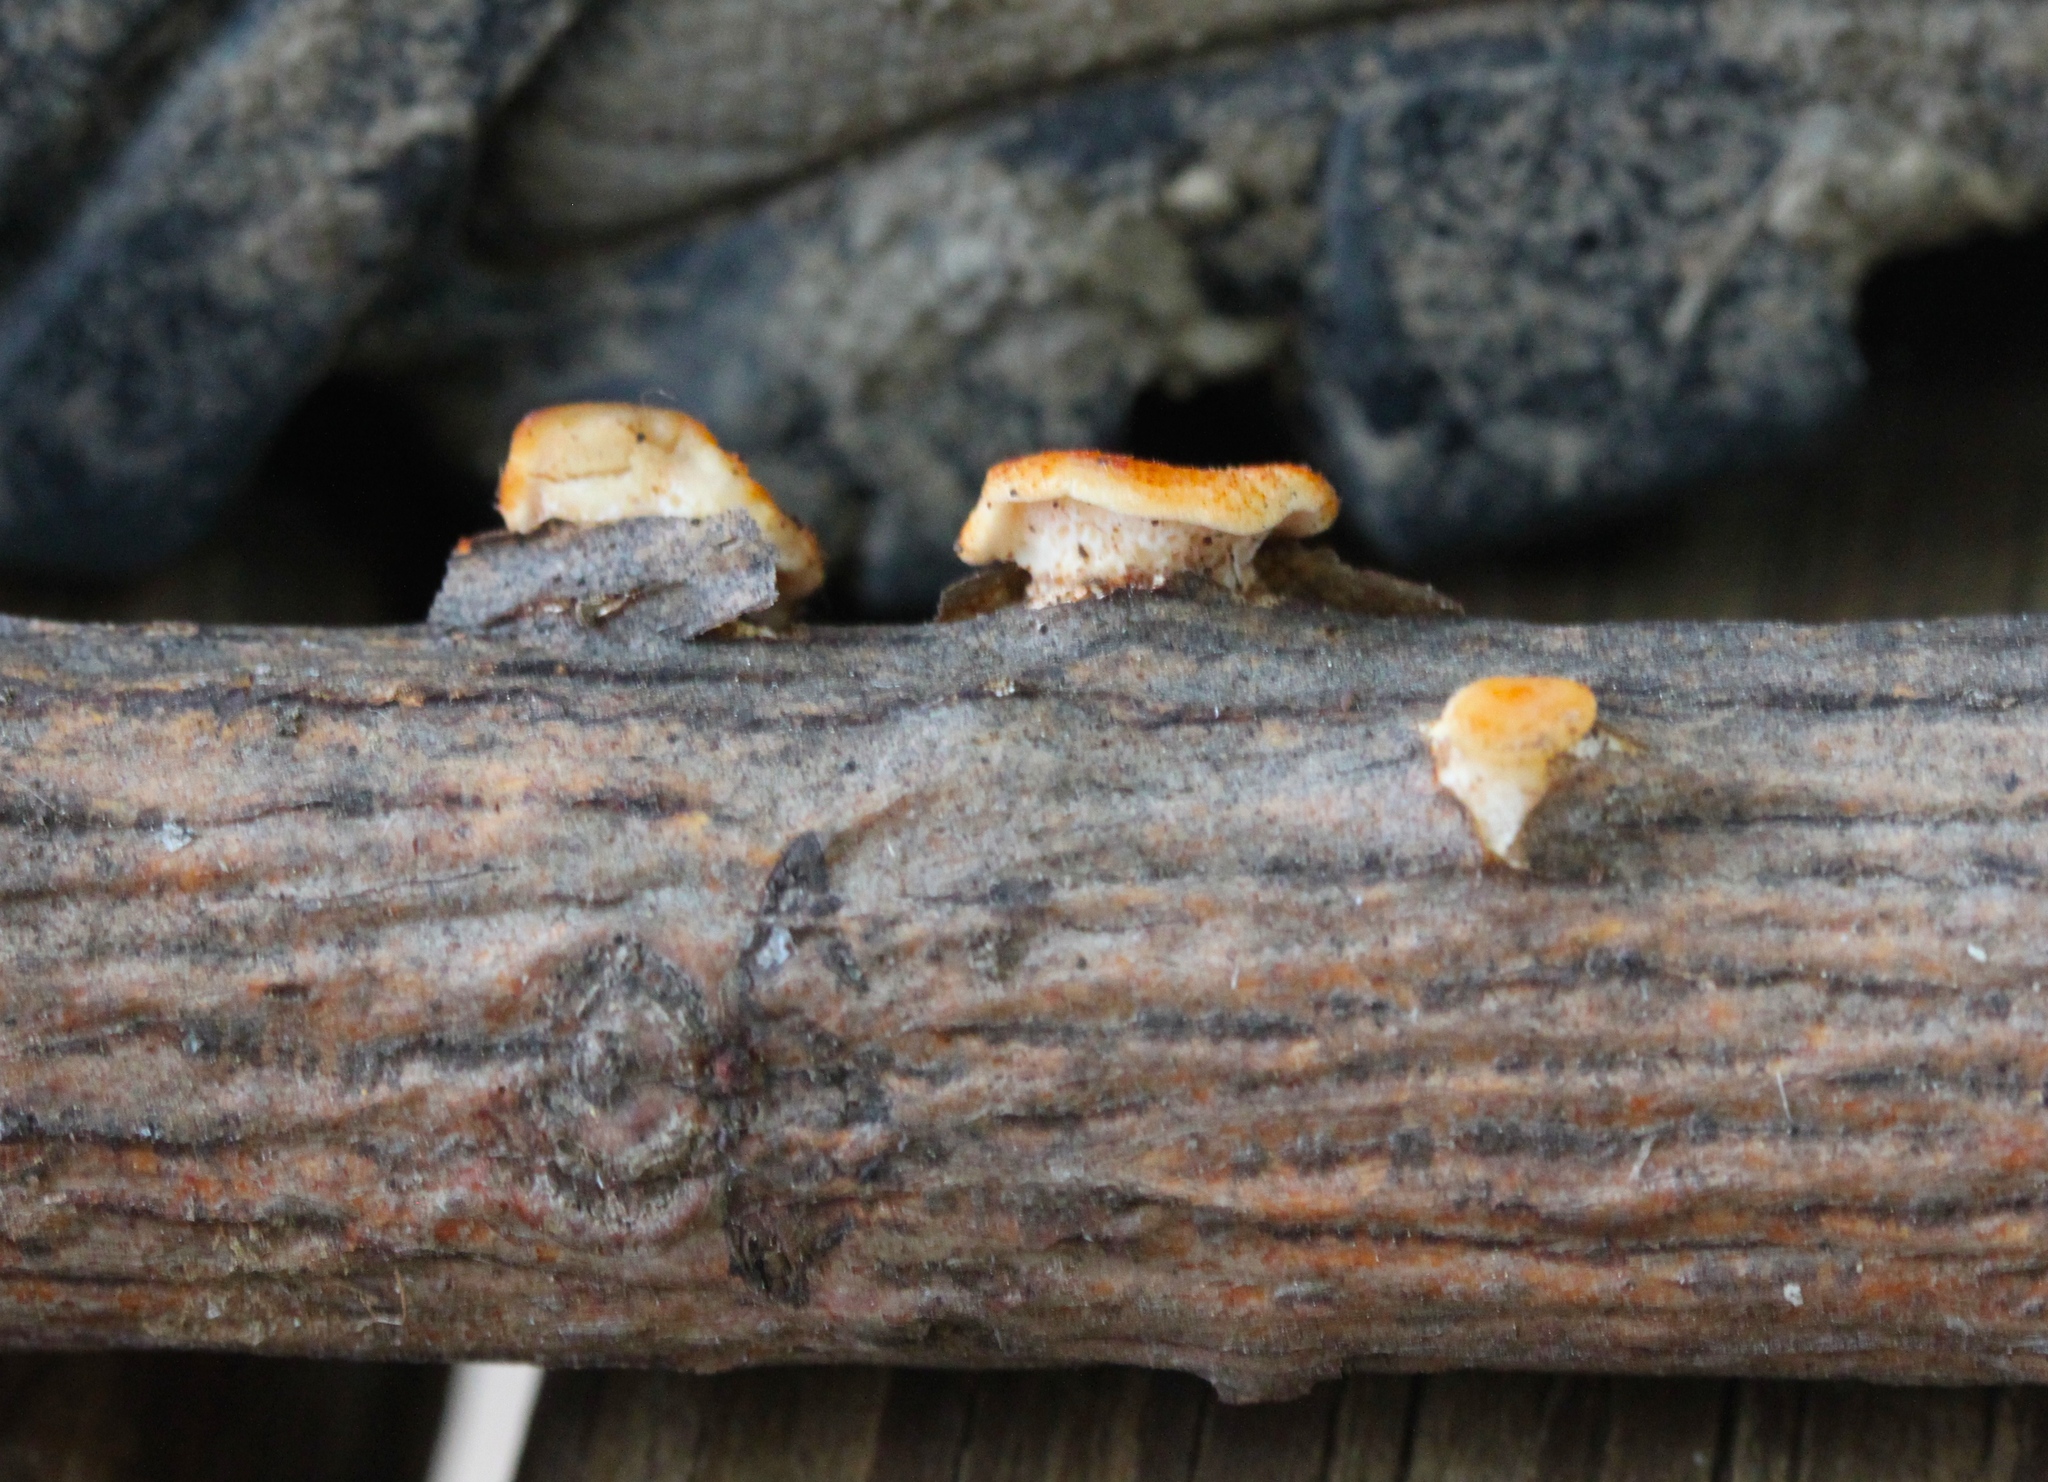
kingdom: Fungi
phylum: Basidiomycota
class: Agaricomycetes
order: Polyporales
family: Polyporaceae
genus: Neofavolus
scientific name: Neofavolus alveolaris
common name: Hexagonal-pored polypore
